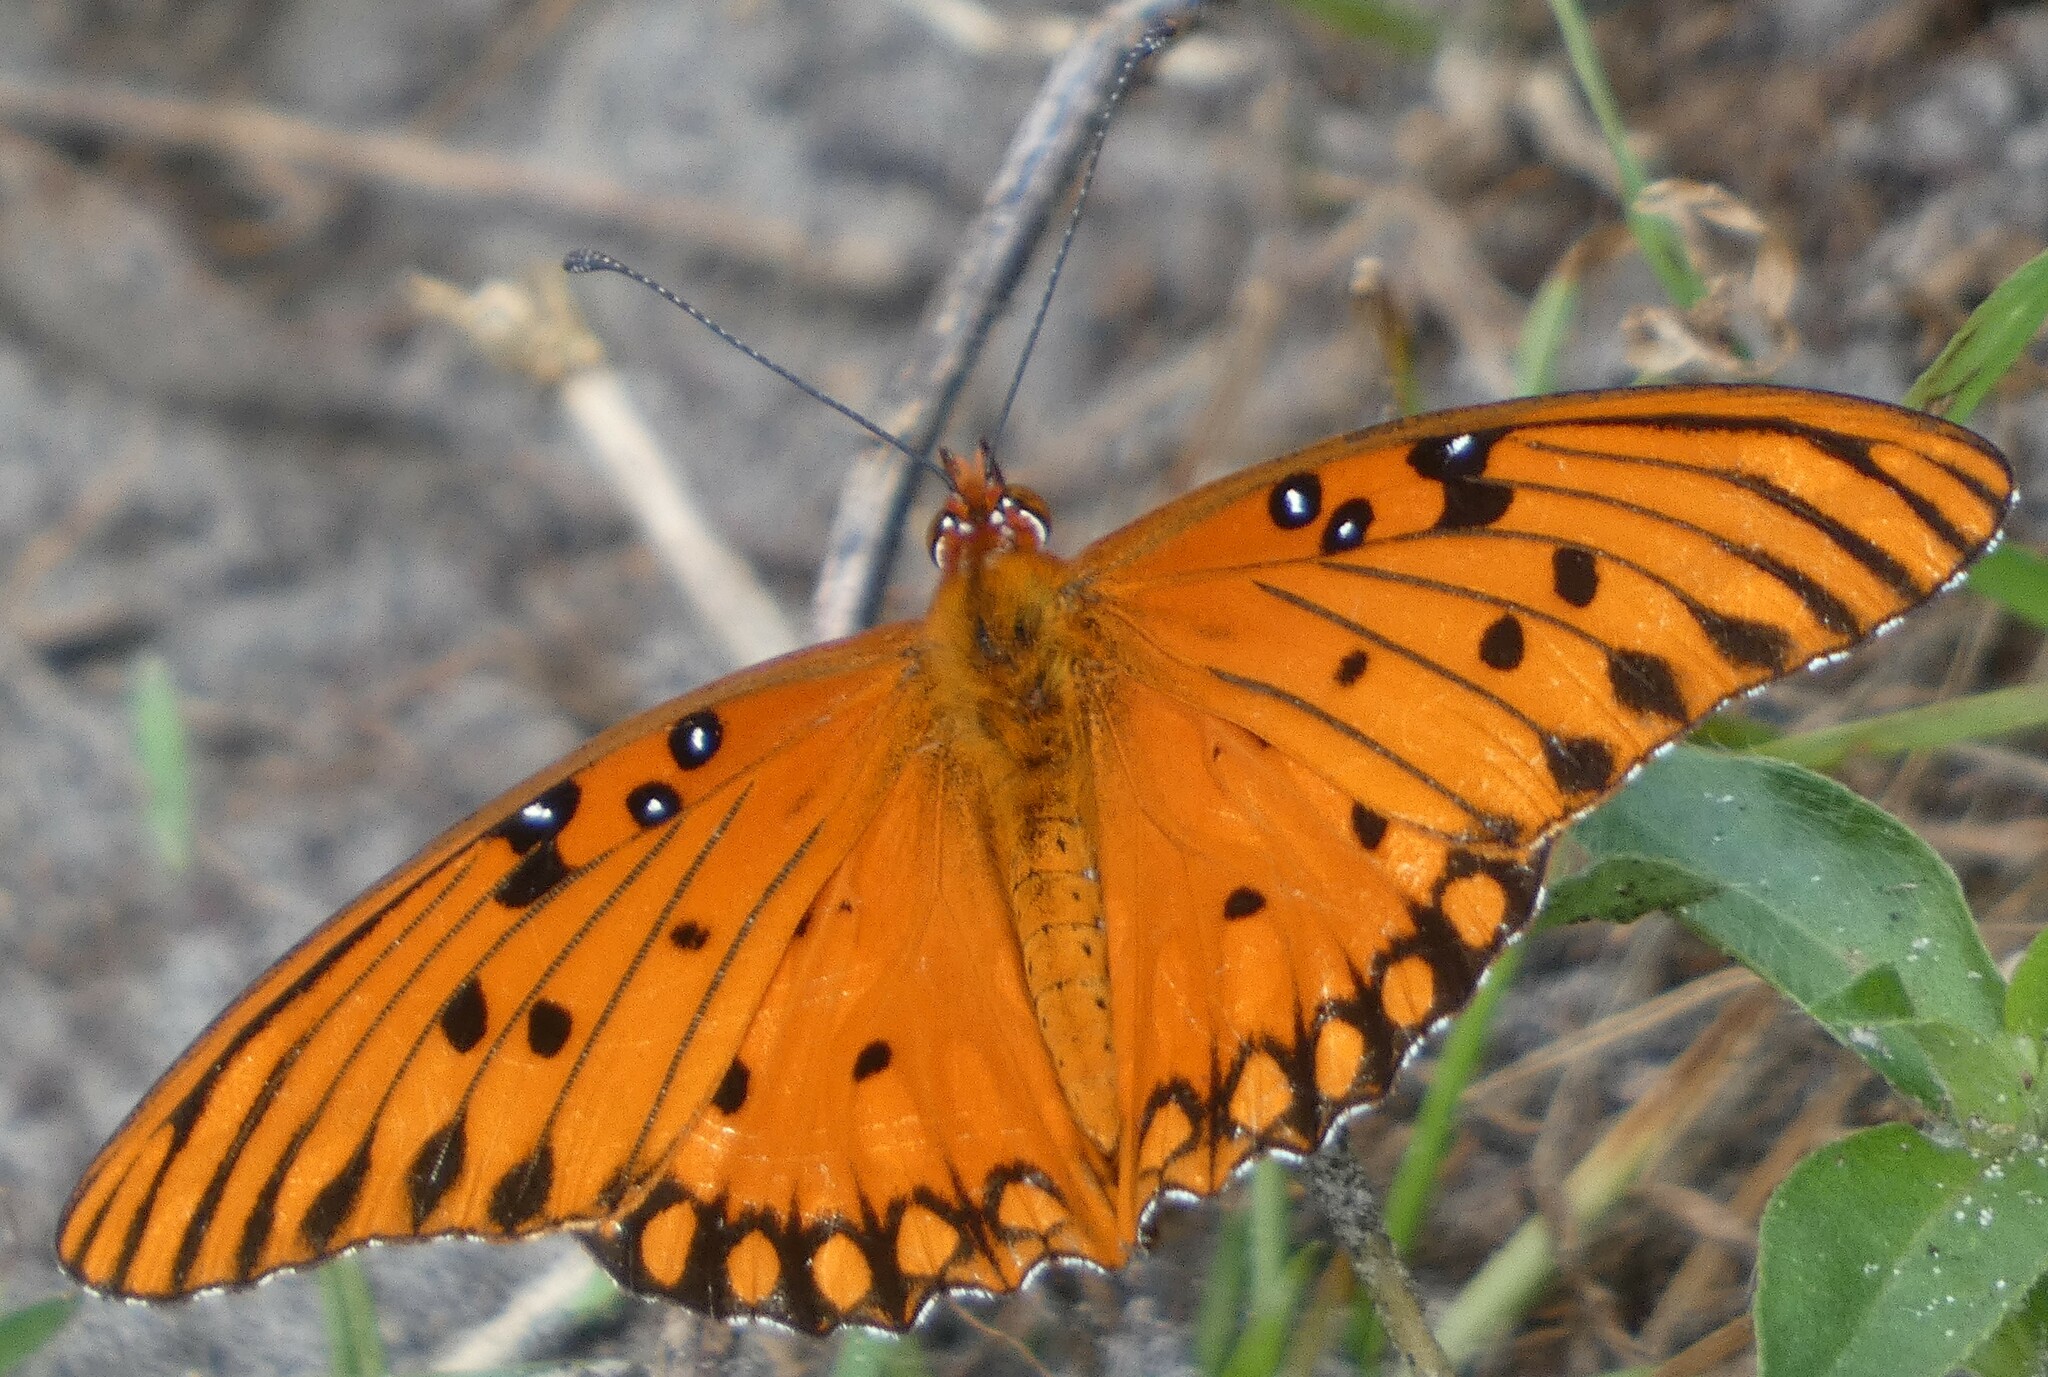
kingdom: Animalia
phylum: Arthropoda
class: Insecta
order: Lepidoptera
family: Nymphalidae
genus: Dione
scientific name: Dione vanillae
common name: Gulf fritillary
